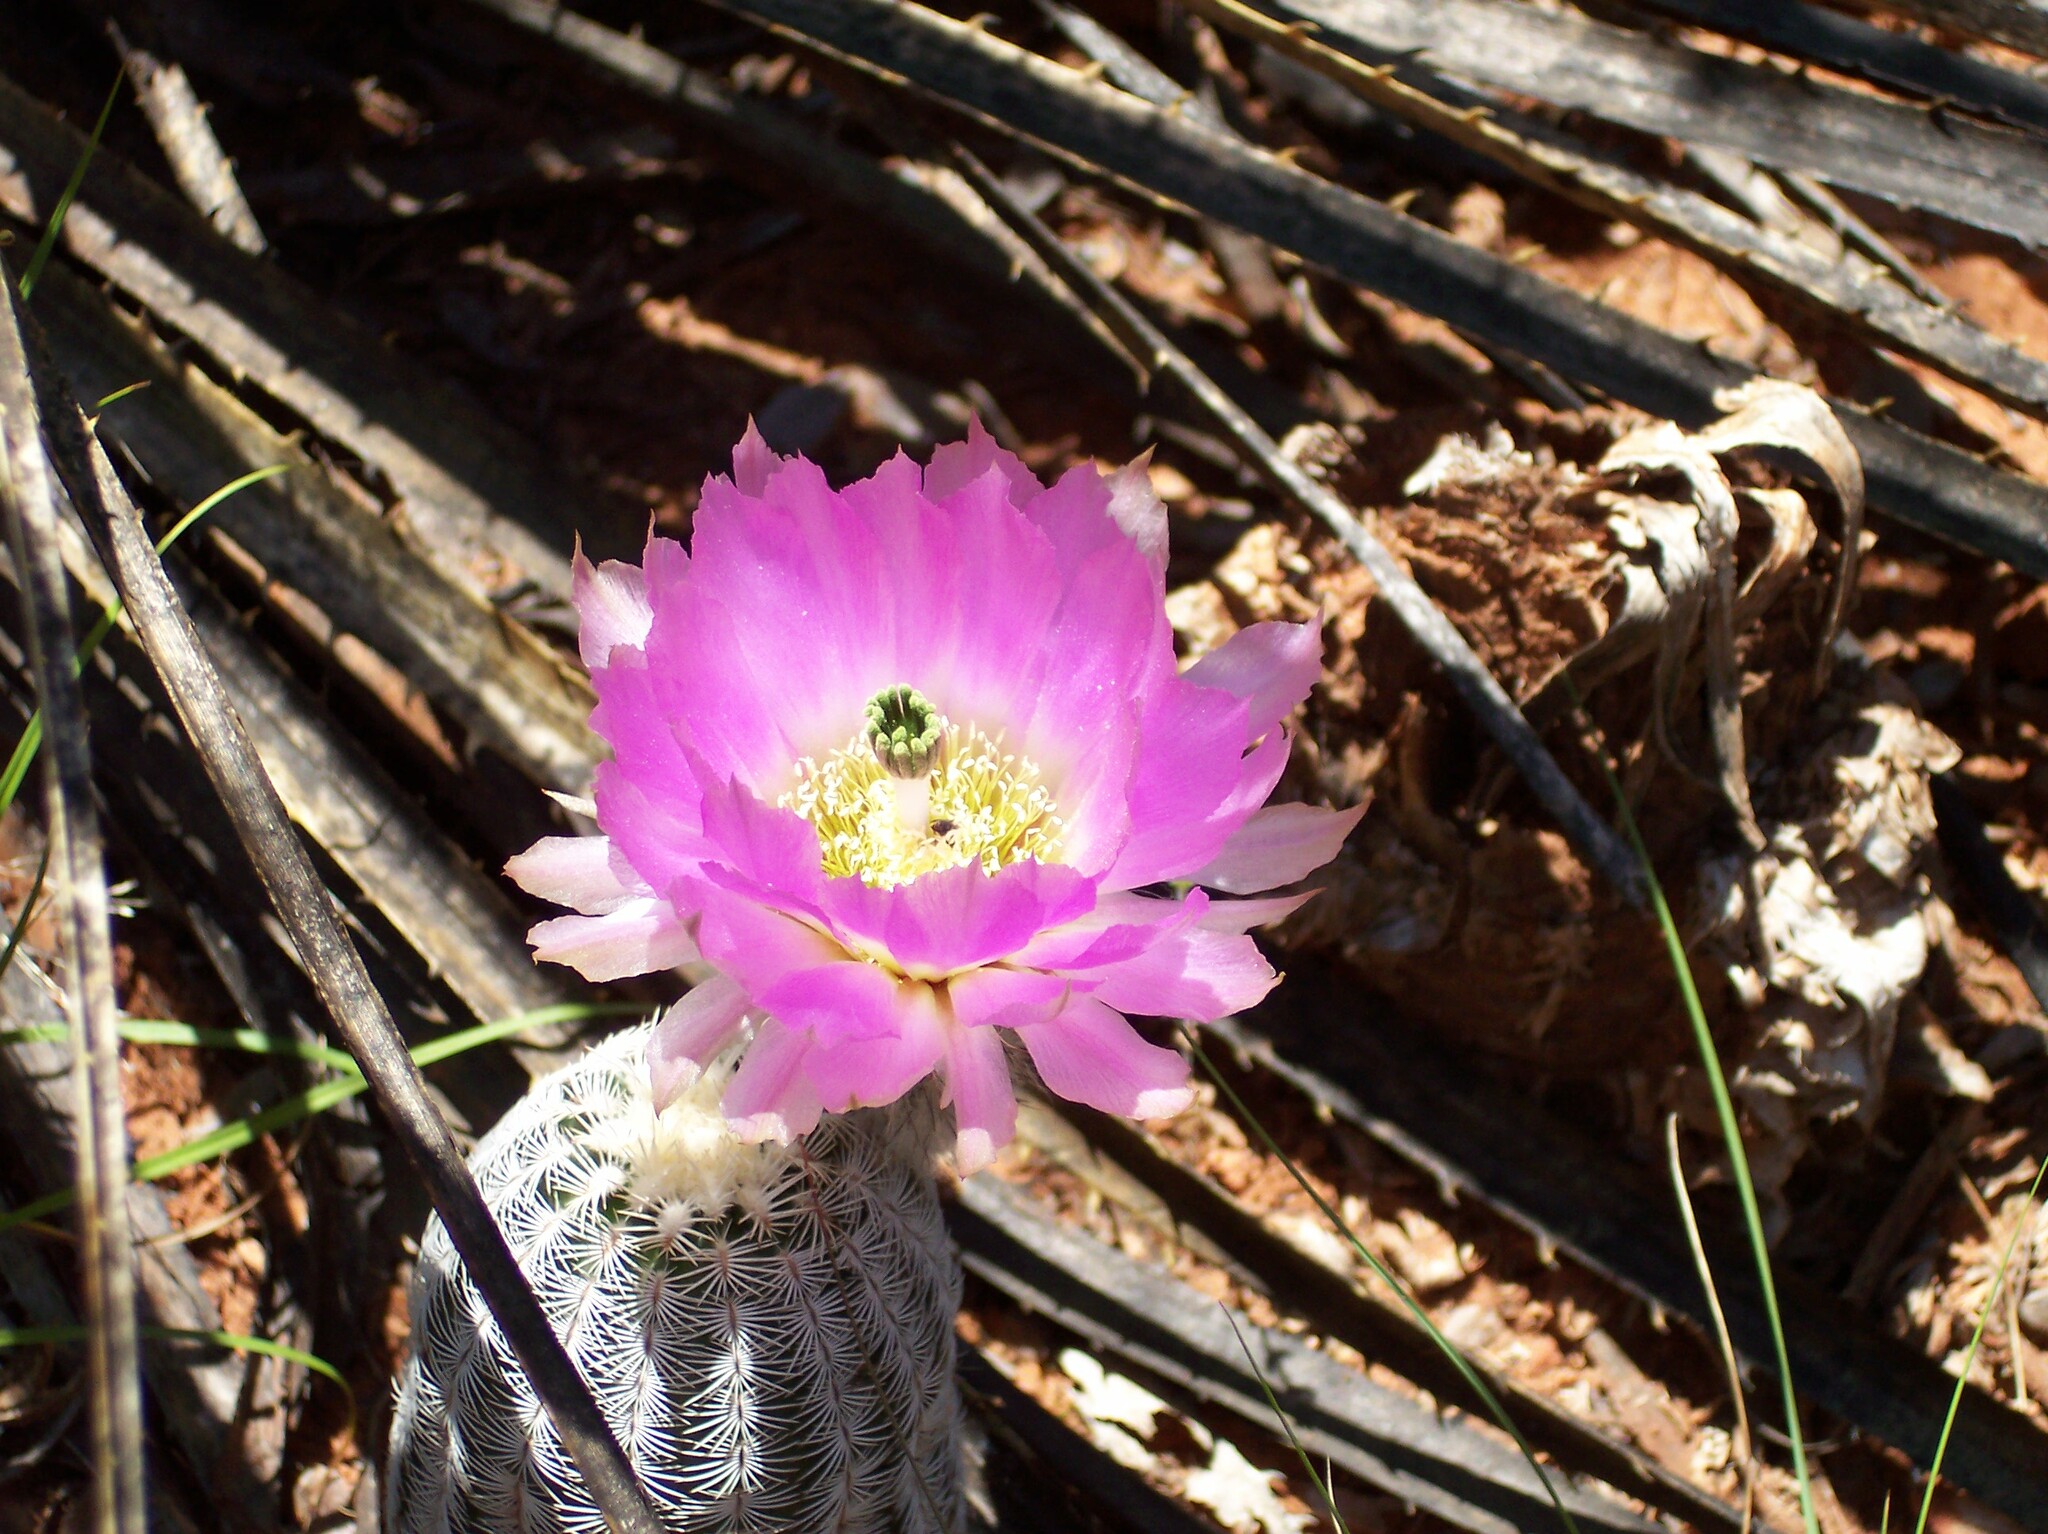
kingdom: Plantae
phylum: Tracheophyta
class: Magnoliopsida
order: Caryophyllales
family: Cactaceae
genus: Echinocereus
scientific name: Echinocereus reichenbachii
